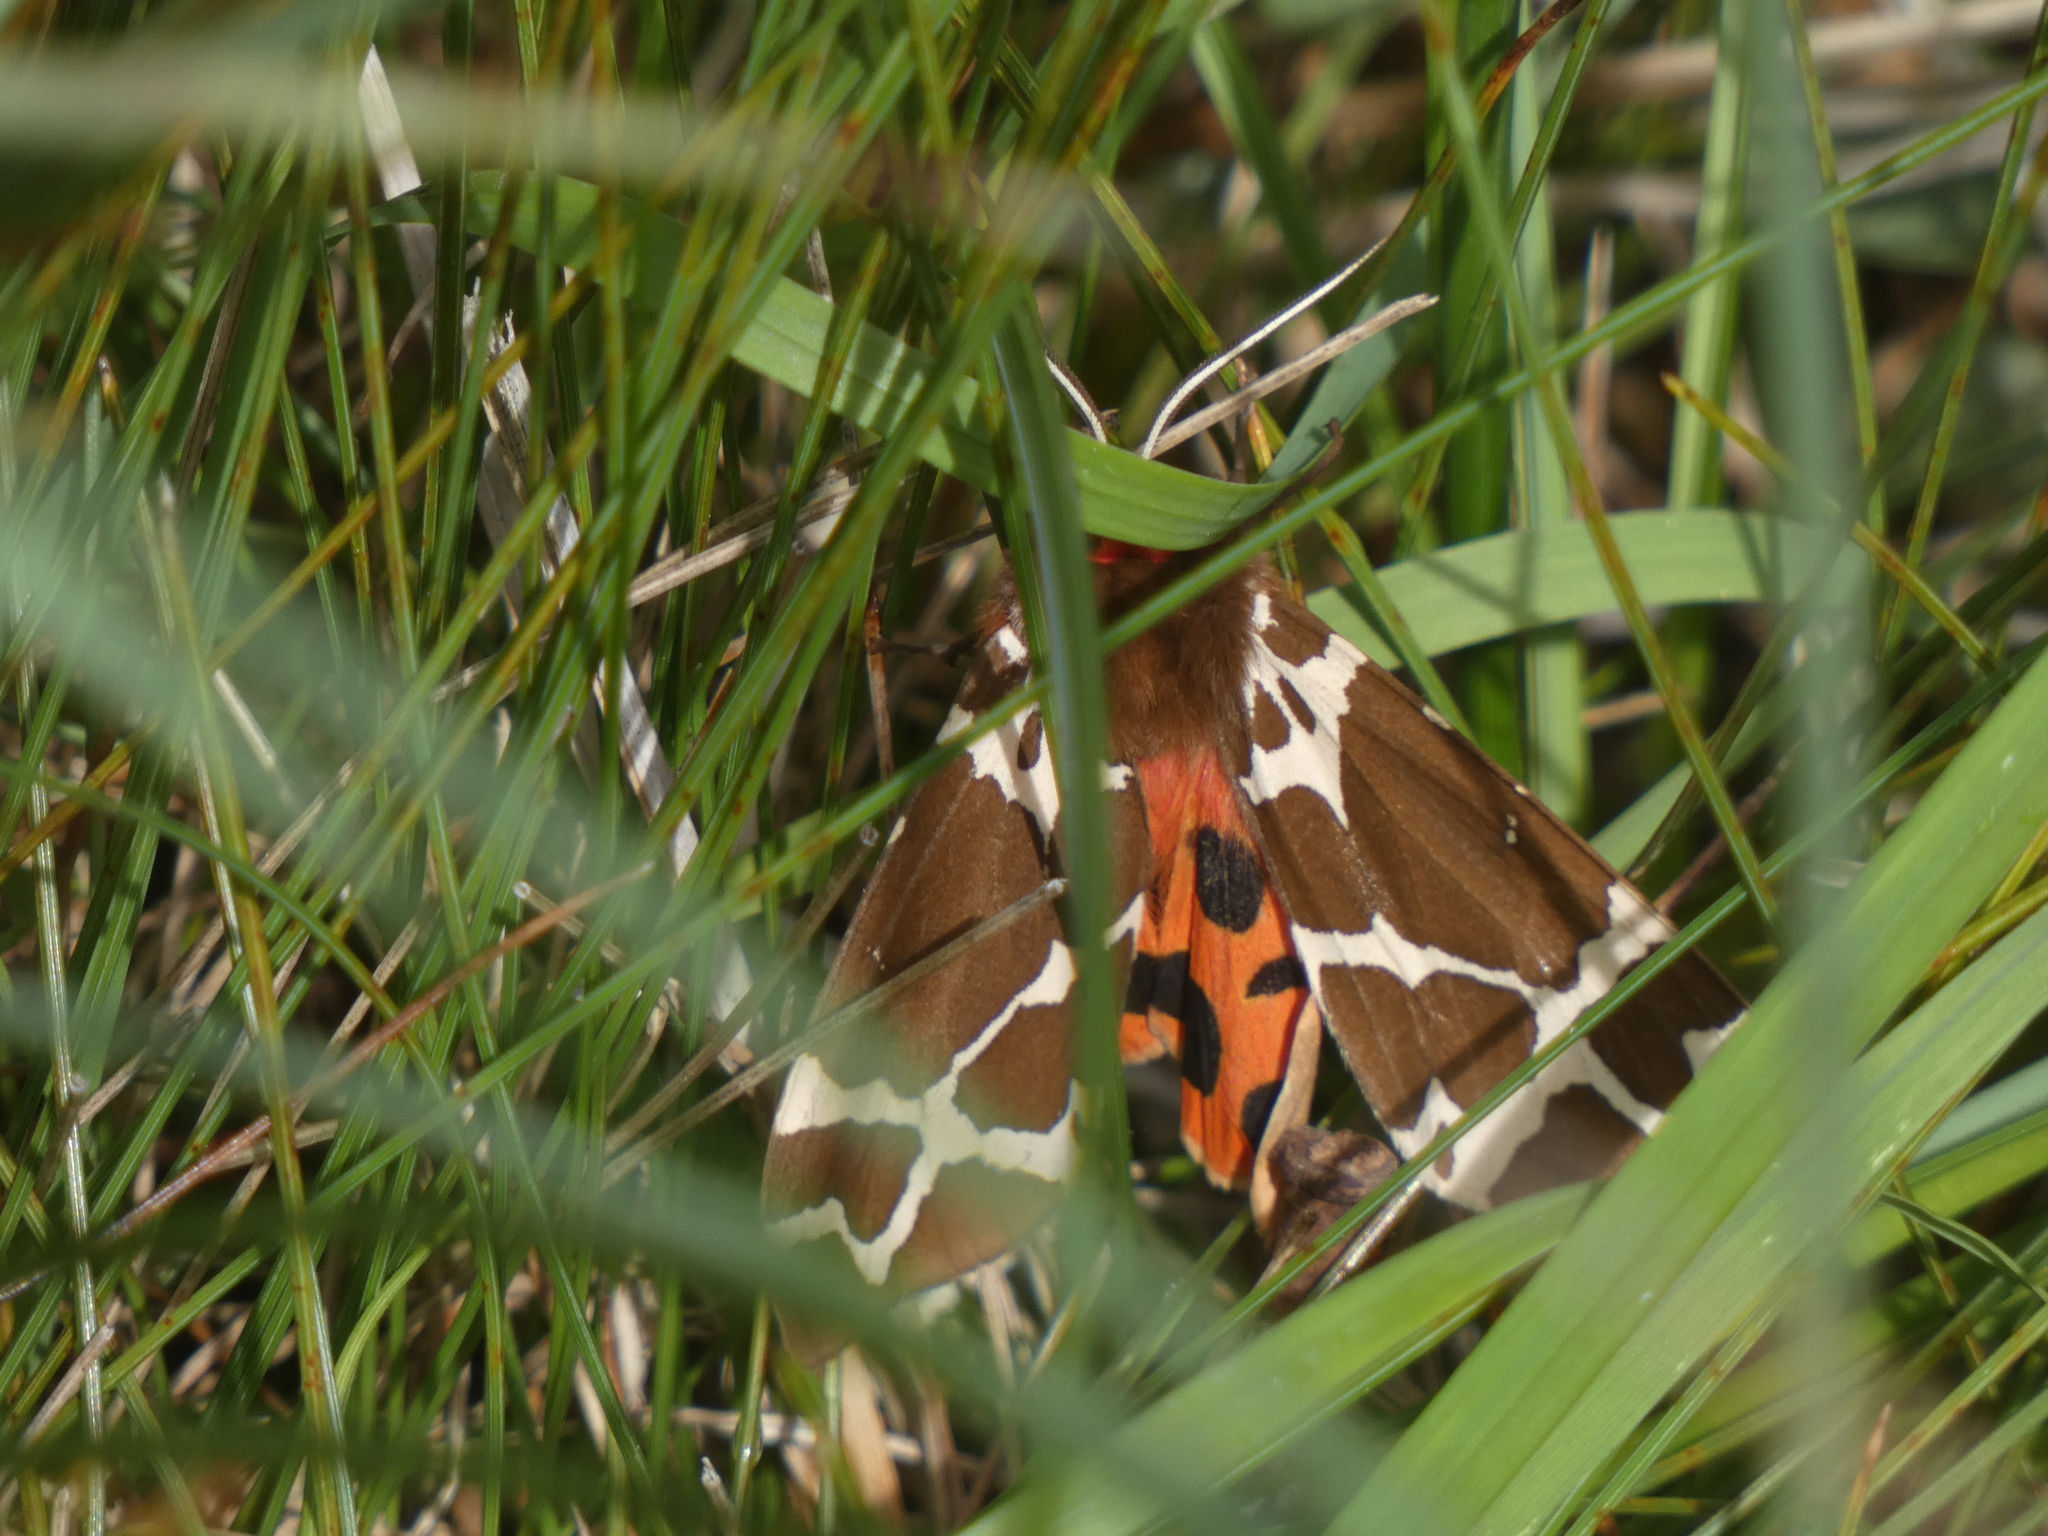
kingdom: Animalia
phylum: Arthropoda
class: Insecta
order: Lepidoptera
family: Erebidae
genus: Arctia
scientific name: Arctia caja
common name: Garden tiger
